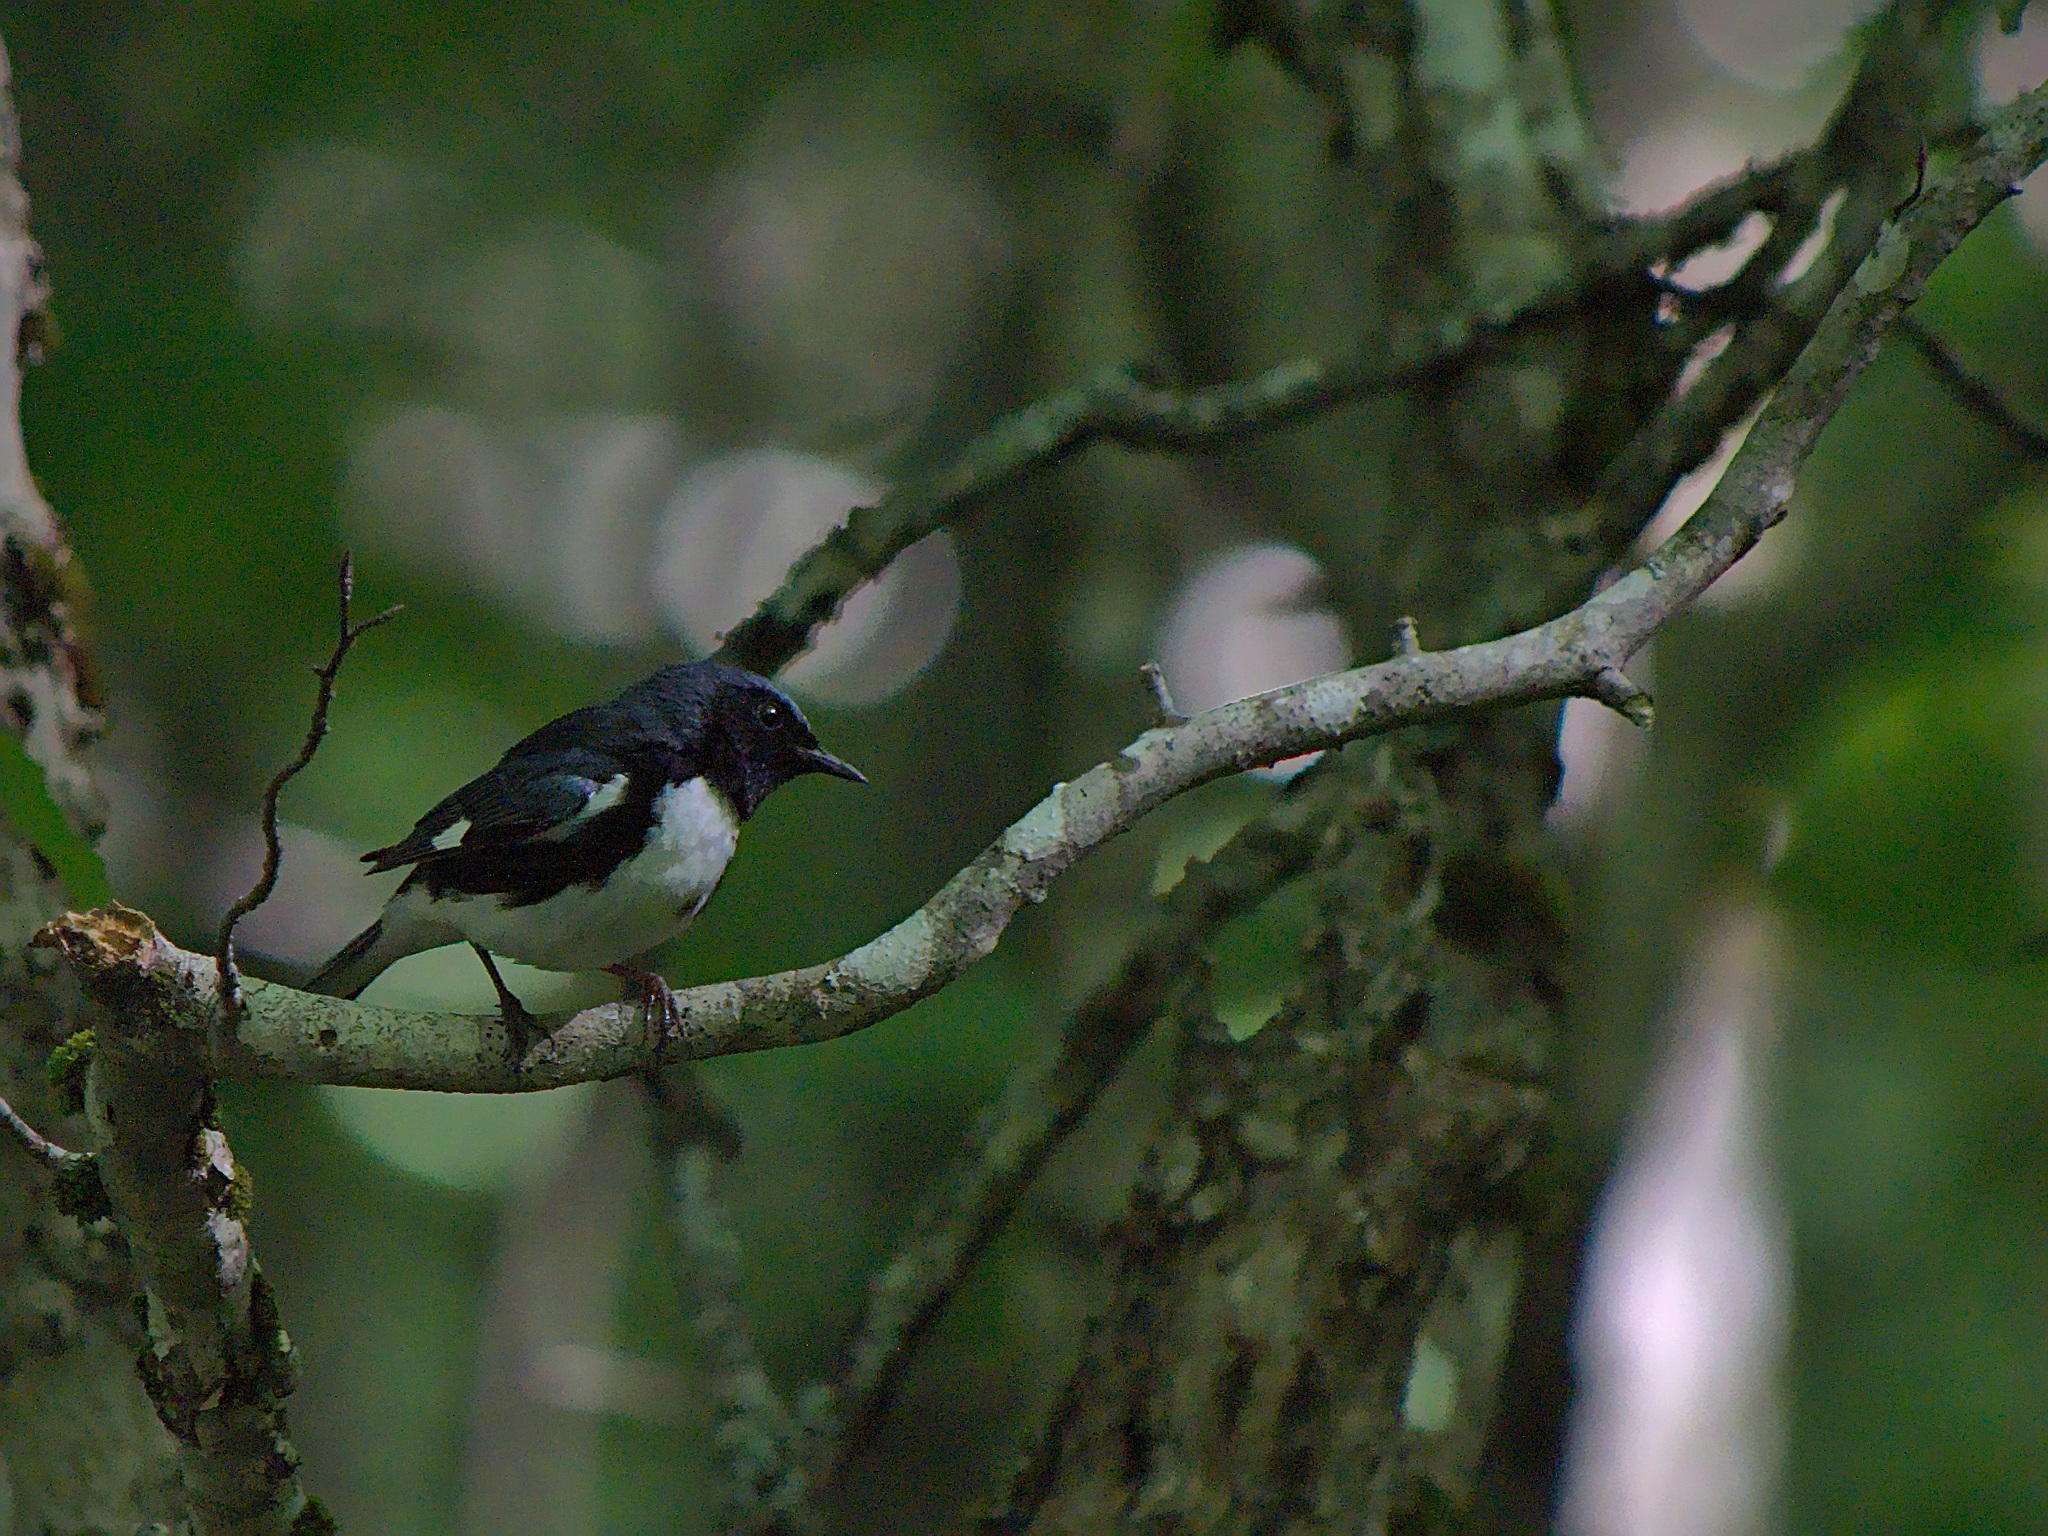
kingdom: Animalia
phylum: Chordata
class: Aves
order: Passeriformes
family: Parulidae
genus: Setophaga
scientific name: Setophaga caerulescens
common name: Black-throated blue warbler
